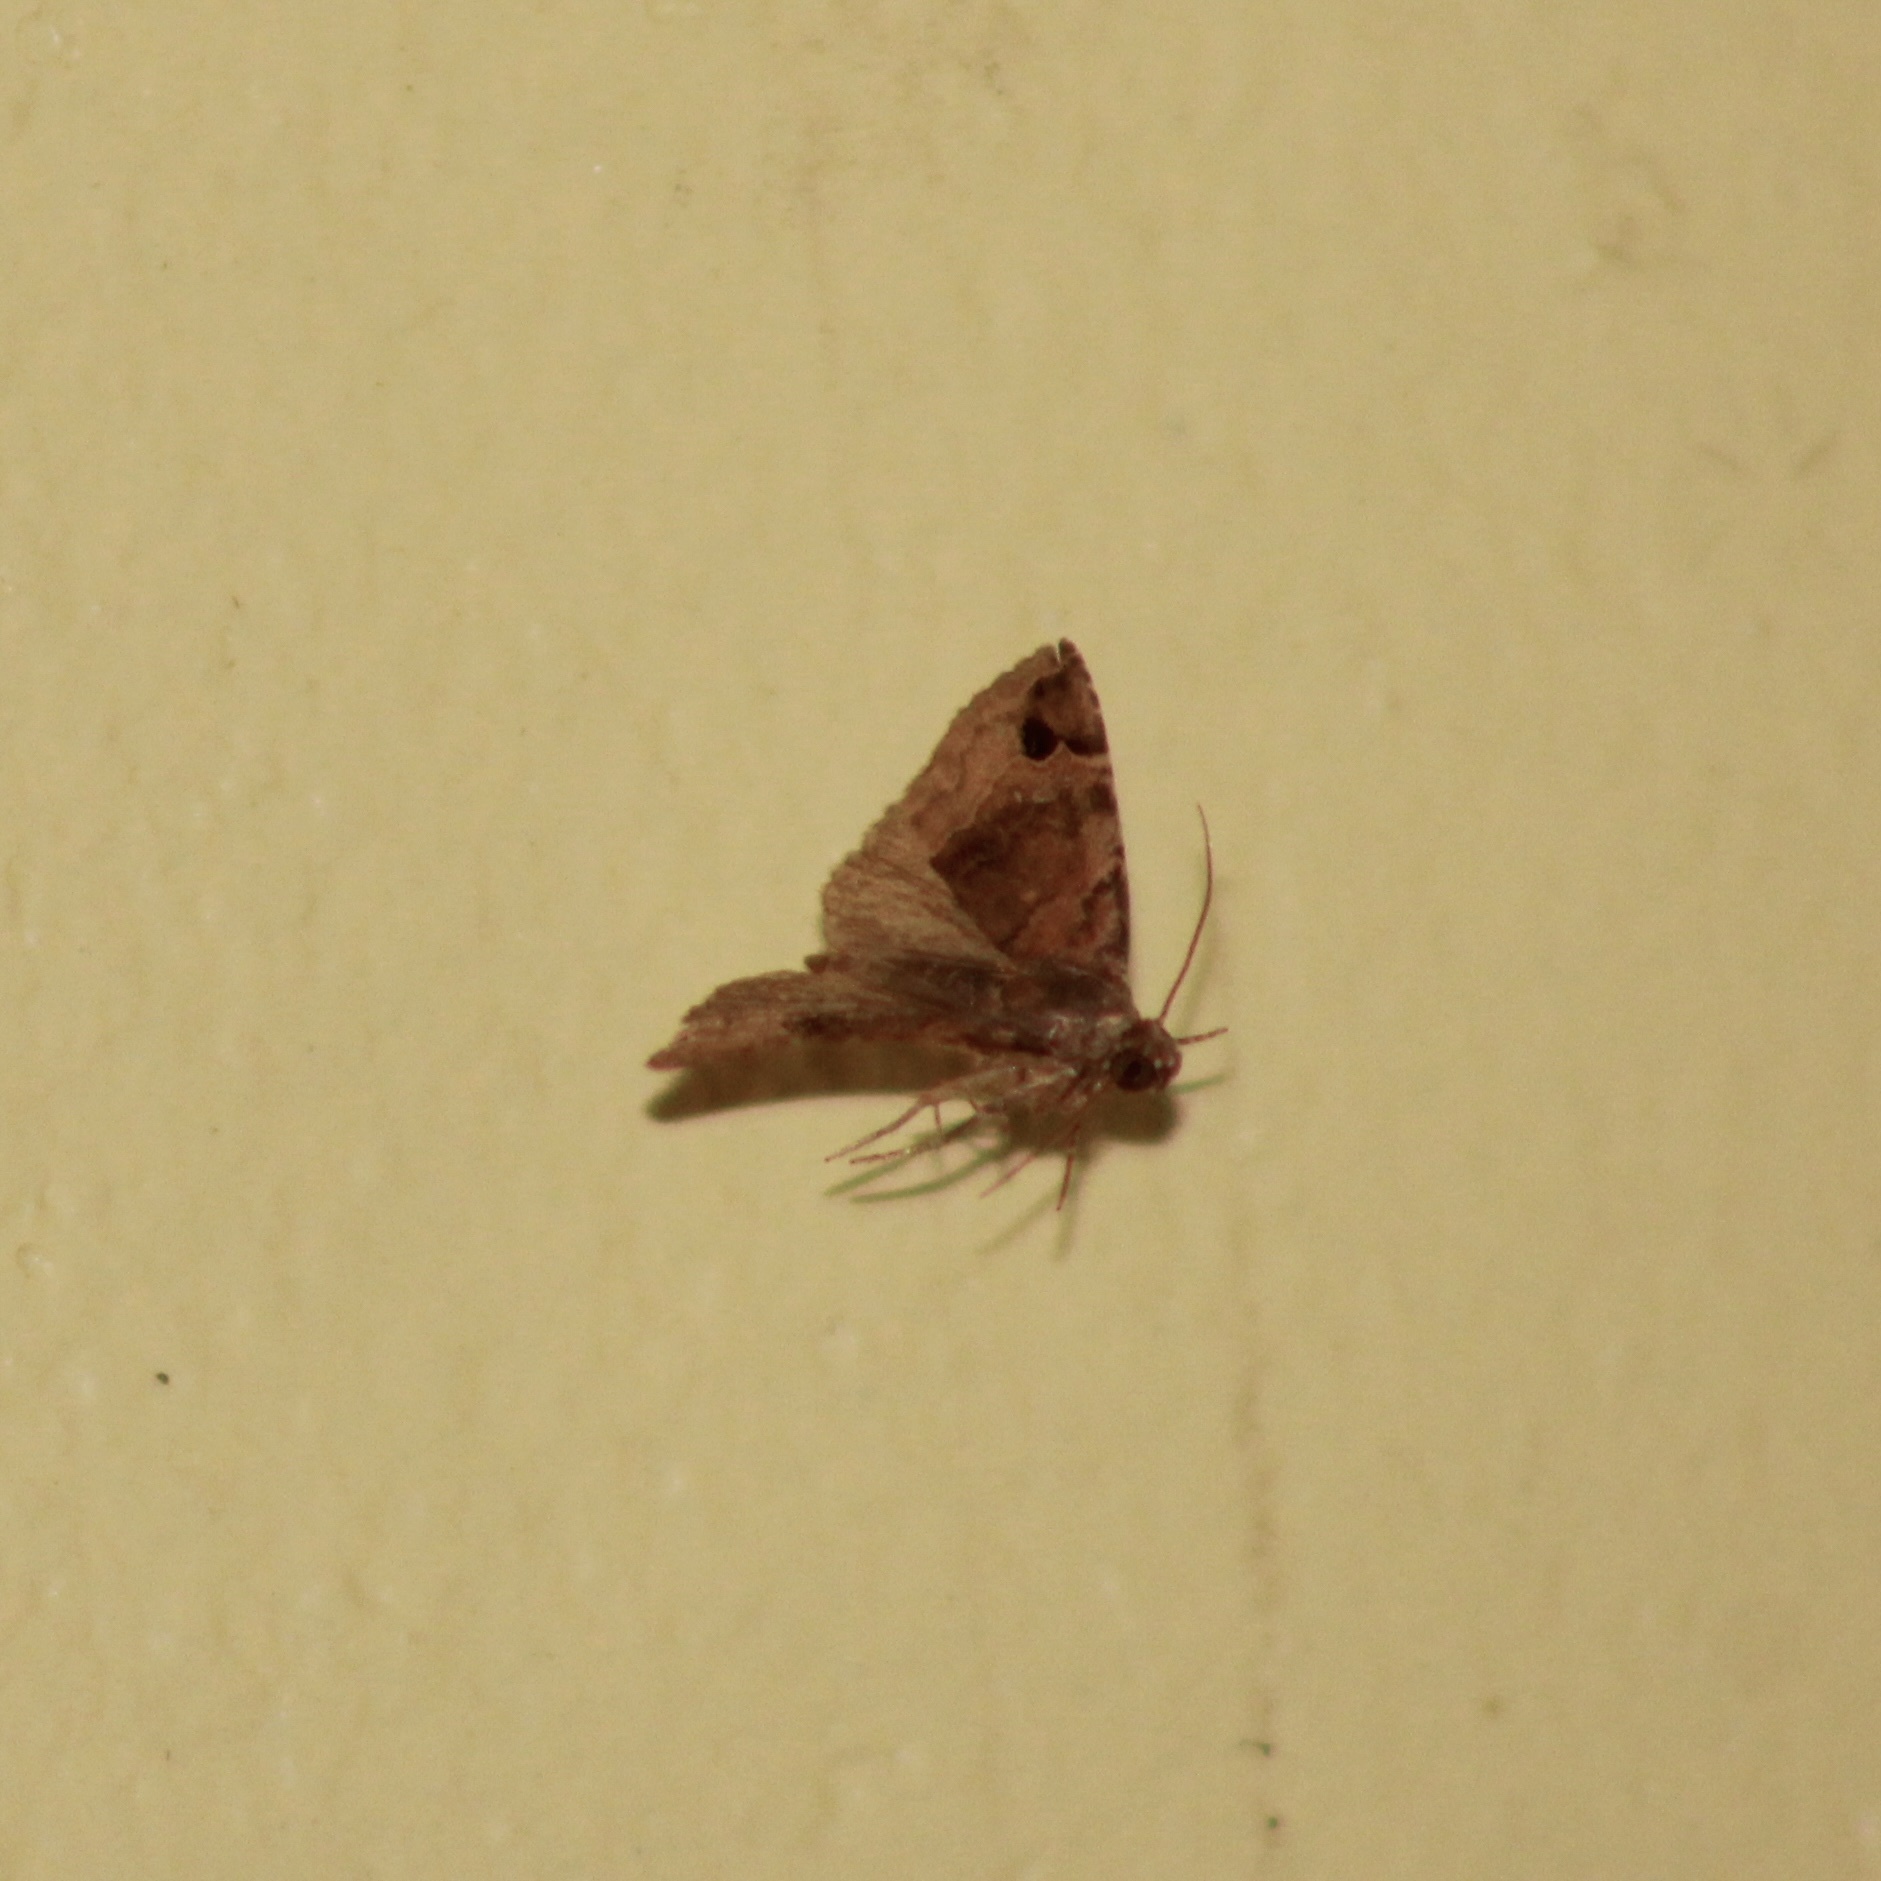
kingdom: Animalia
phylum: Arthropoda
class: Insecta
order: Lepidoptera
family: Noctuidae
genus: Ozarba
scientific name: Ozarba melanodonta
